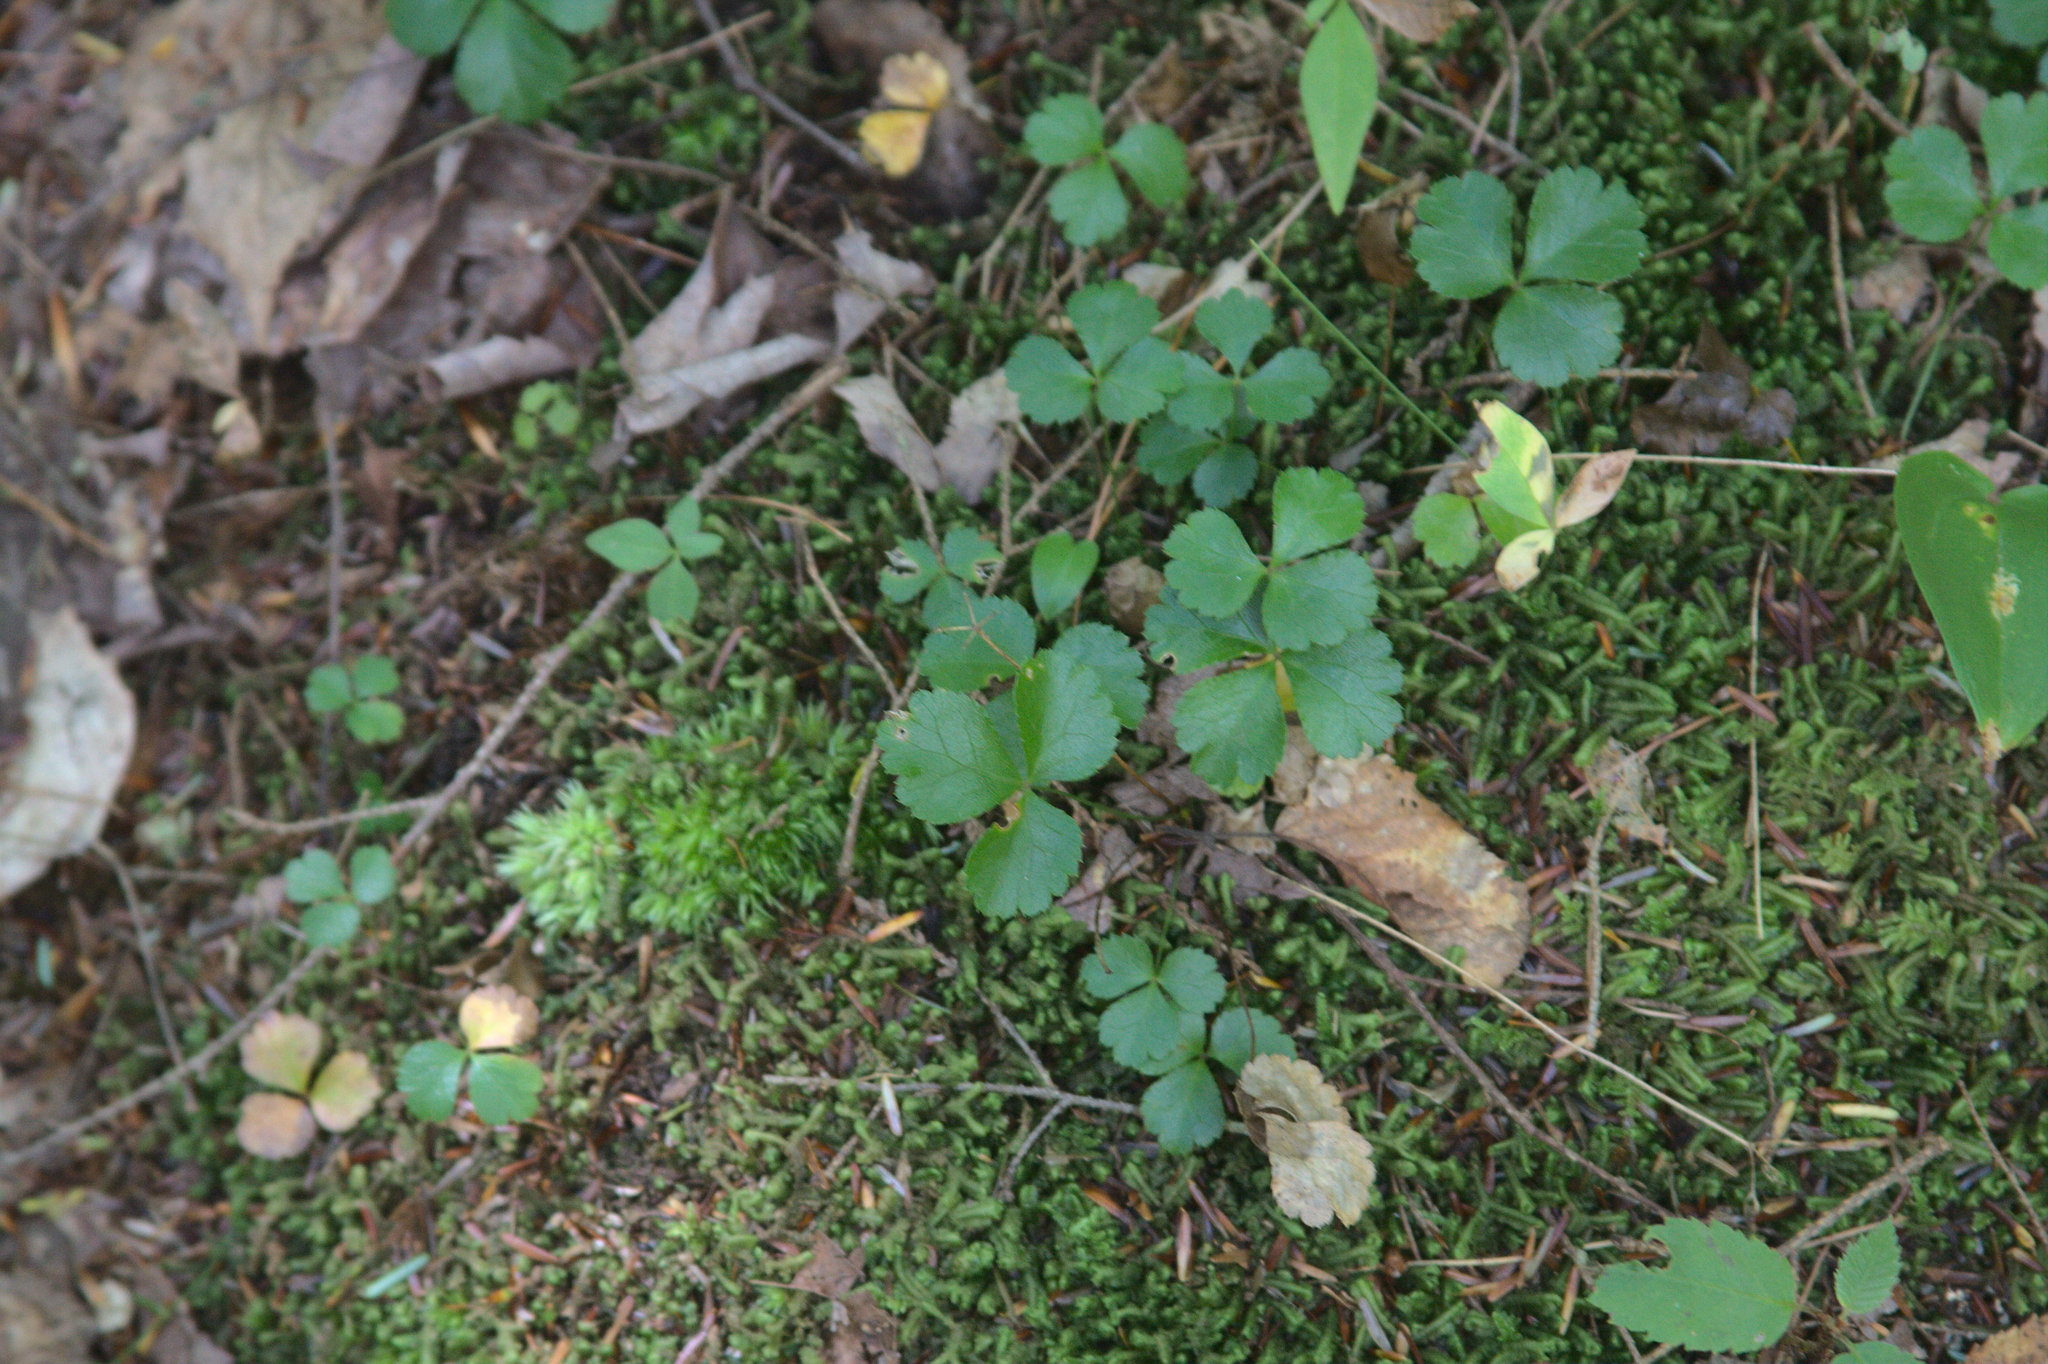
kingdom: Plantae
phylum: Tracheophyta
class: Magnoliopsida
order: Ranunculales
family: Ranunculaceae
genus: Coptis
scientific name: Coptis trifolia
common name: Canker-root
